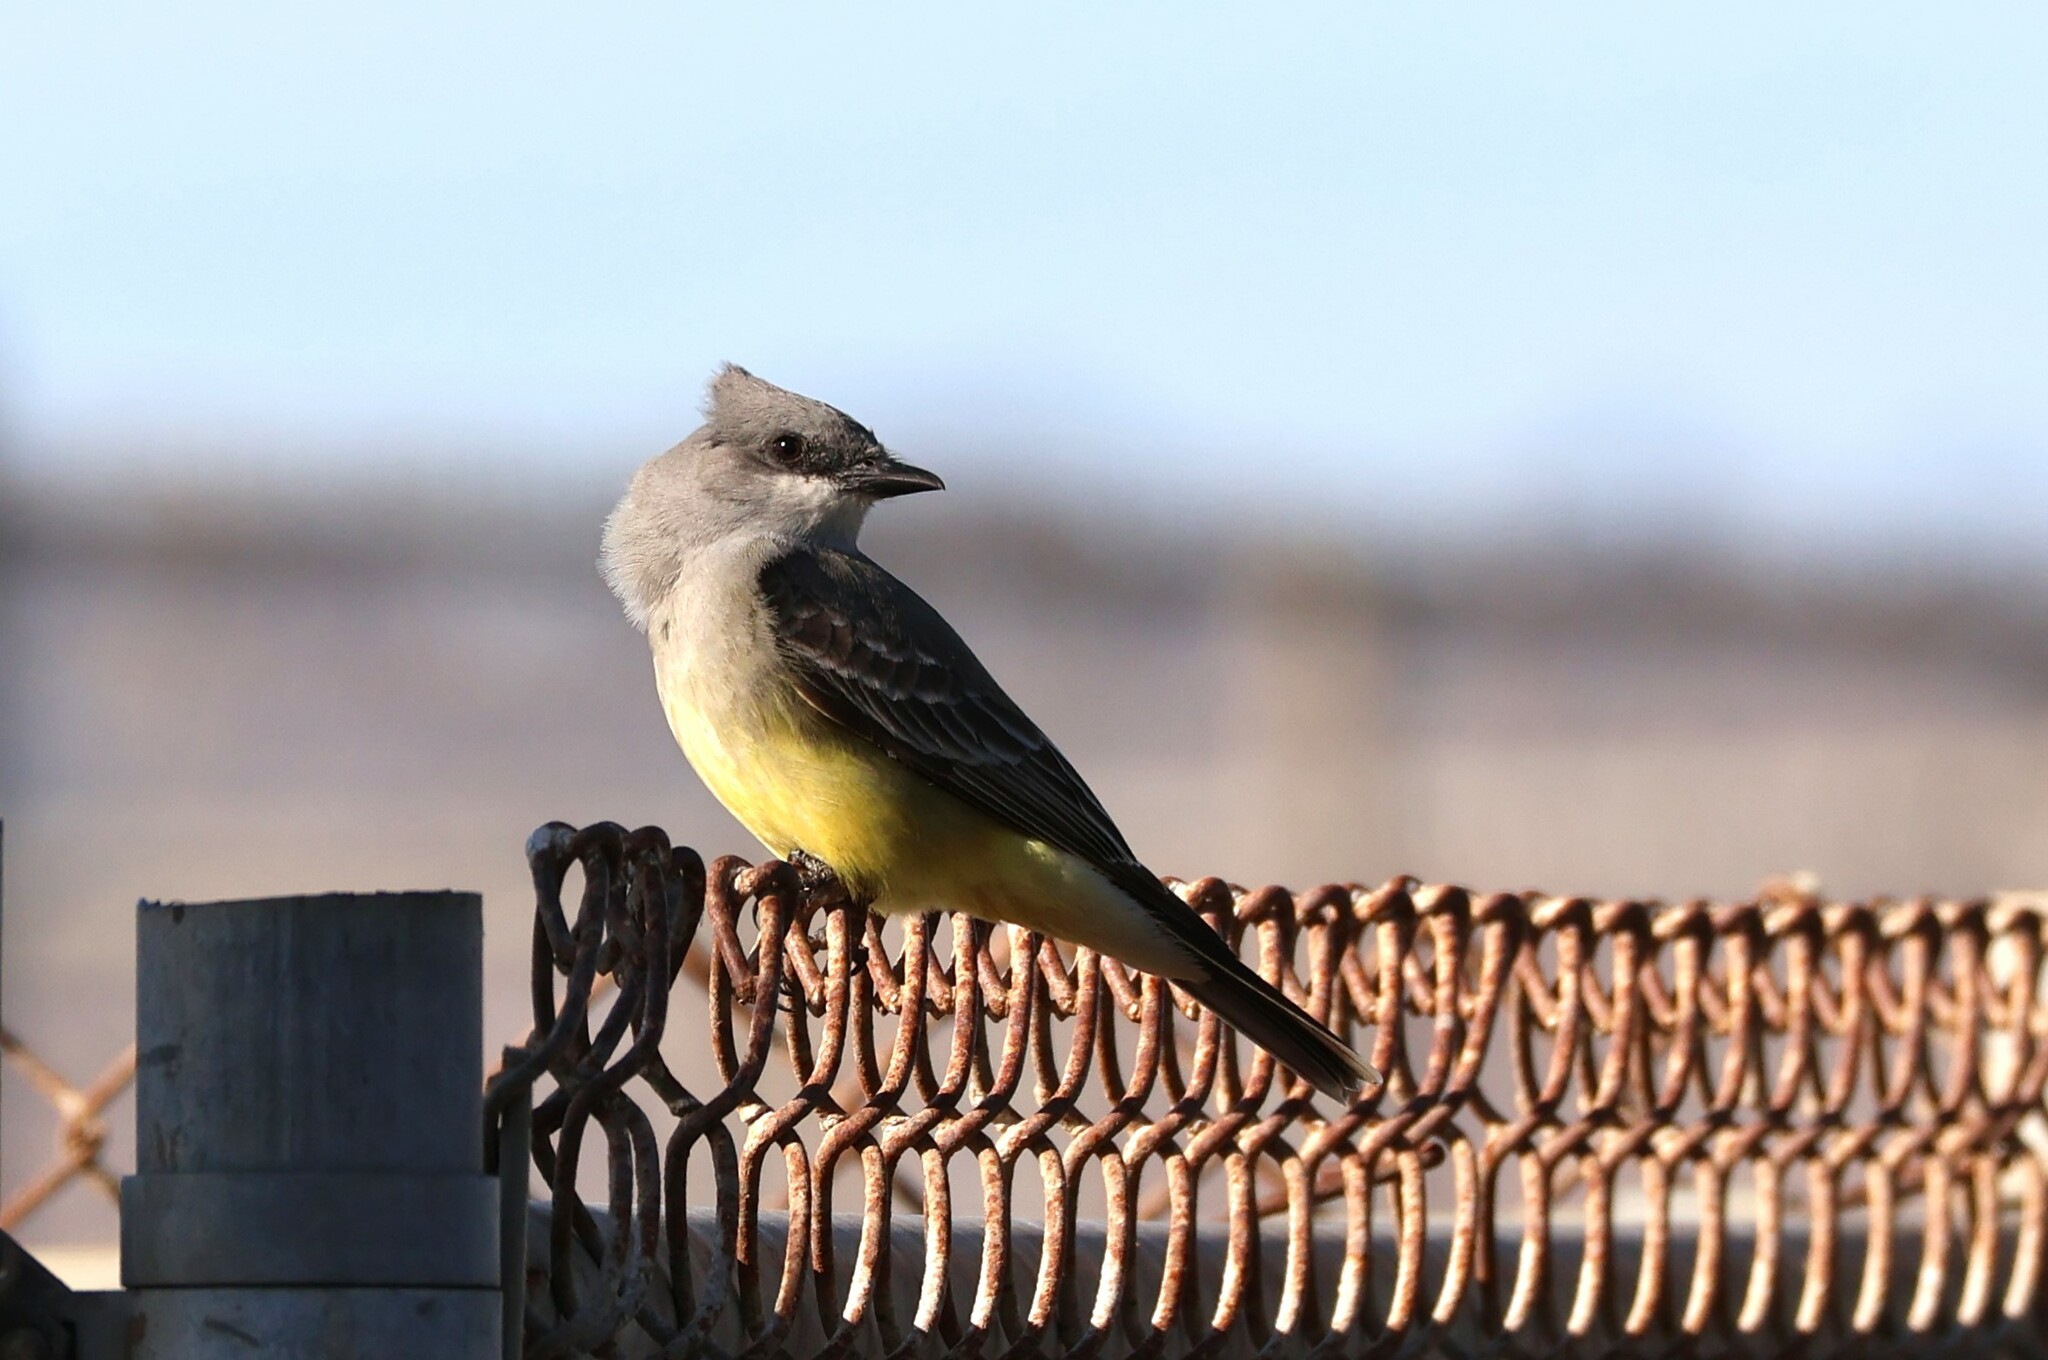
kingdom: Animalia
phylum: Chordata
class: Aves
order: Passeriformes
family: Tyrannidae
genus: Tyrannus
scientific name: Tyrannus vociferans
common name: Cassin's kingbird
